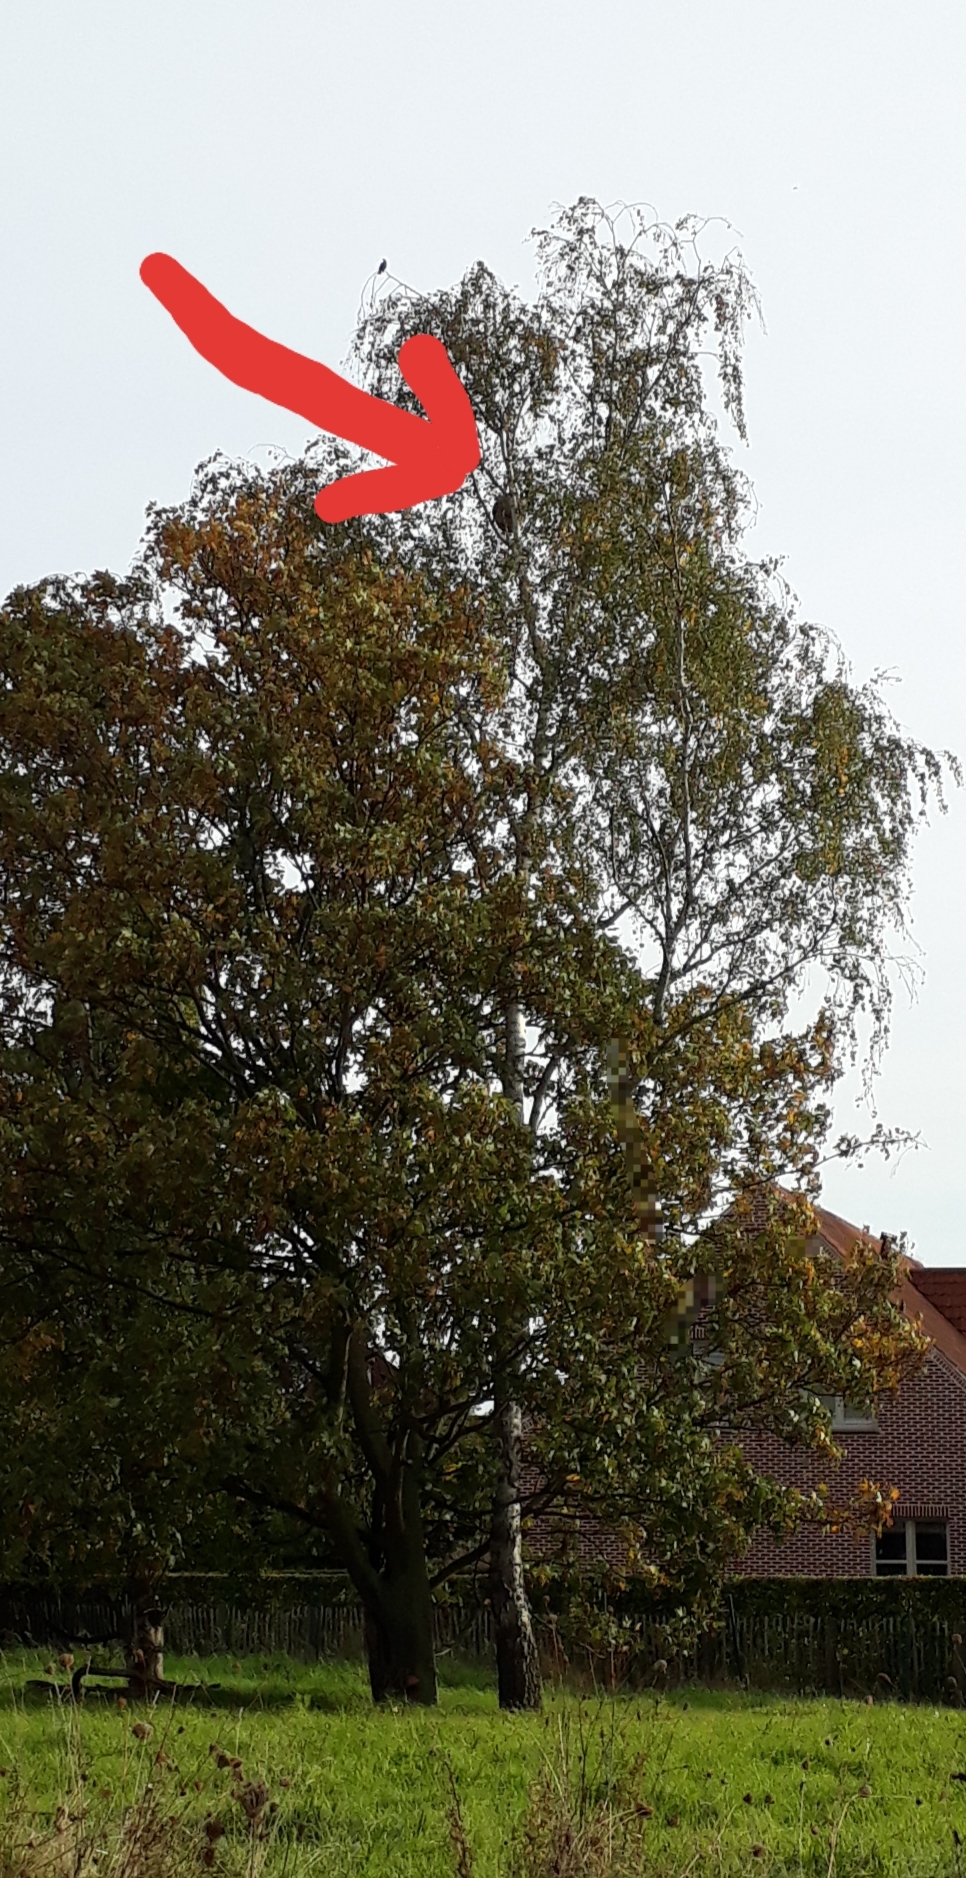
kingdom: Animalia
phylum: Arthropoda
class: Insecta
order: Hymenoptera
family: Vespidae
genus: Vespa
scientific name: Vespa velutina
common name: Asian hornet
